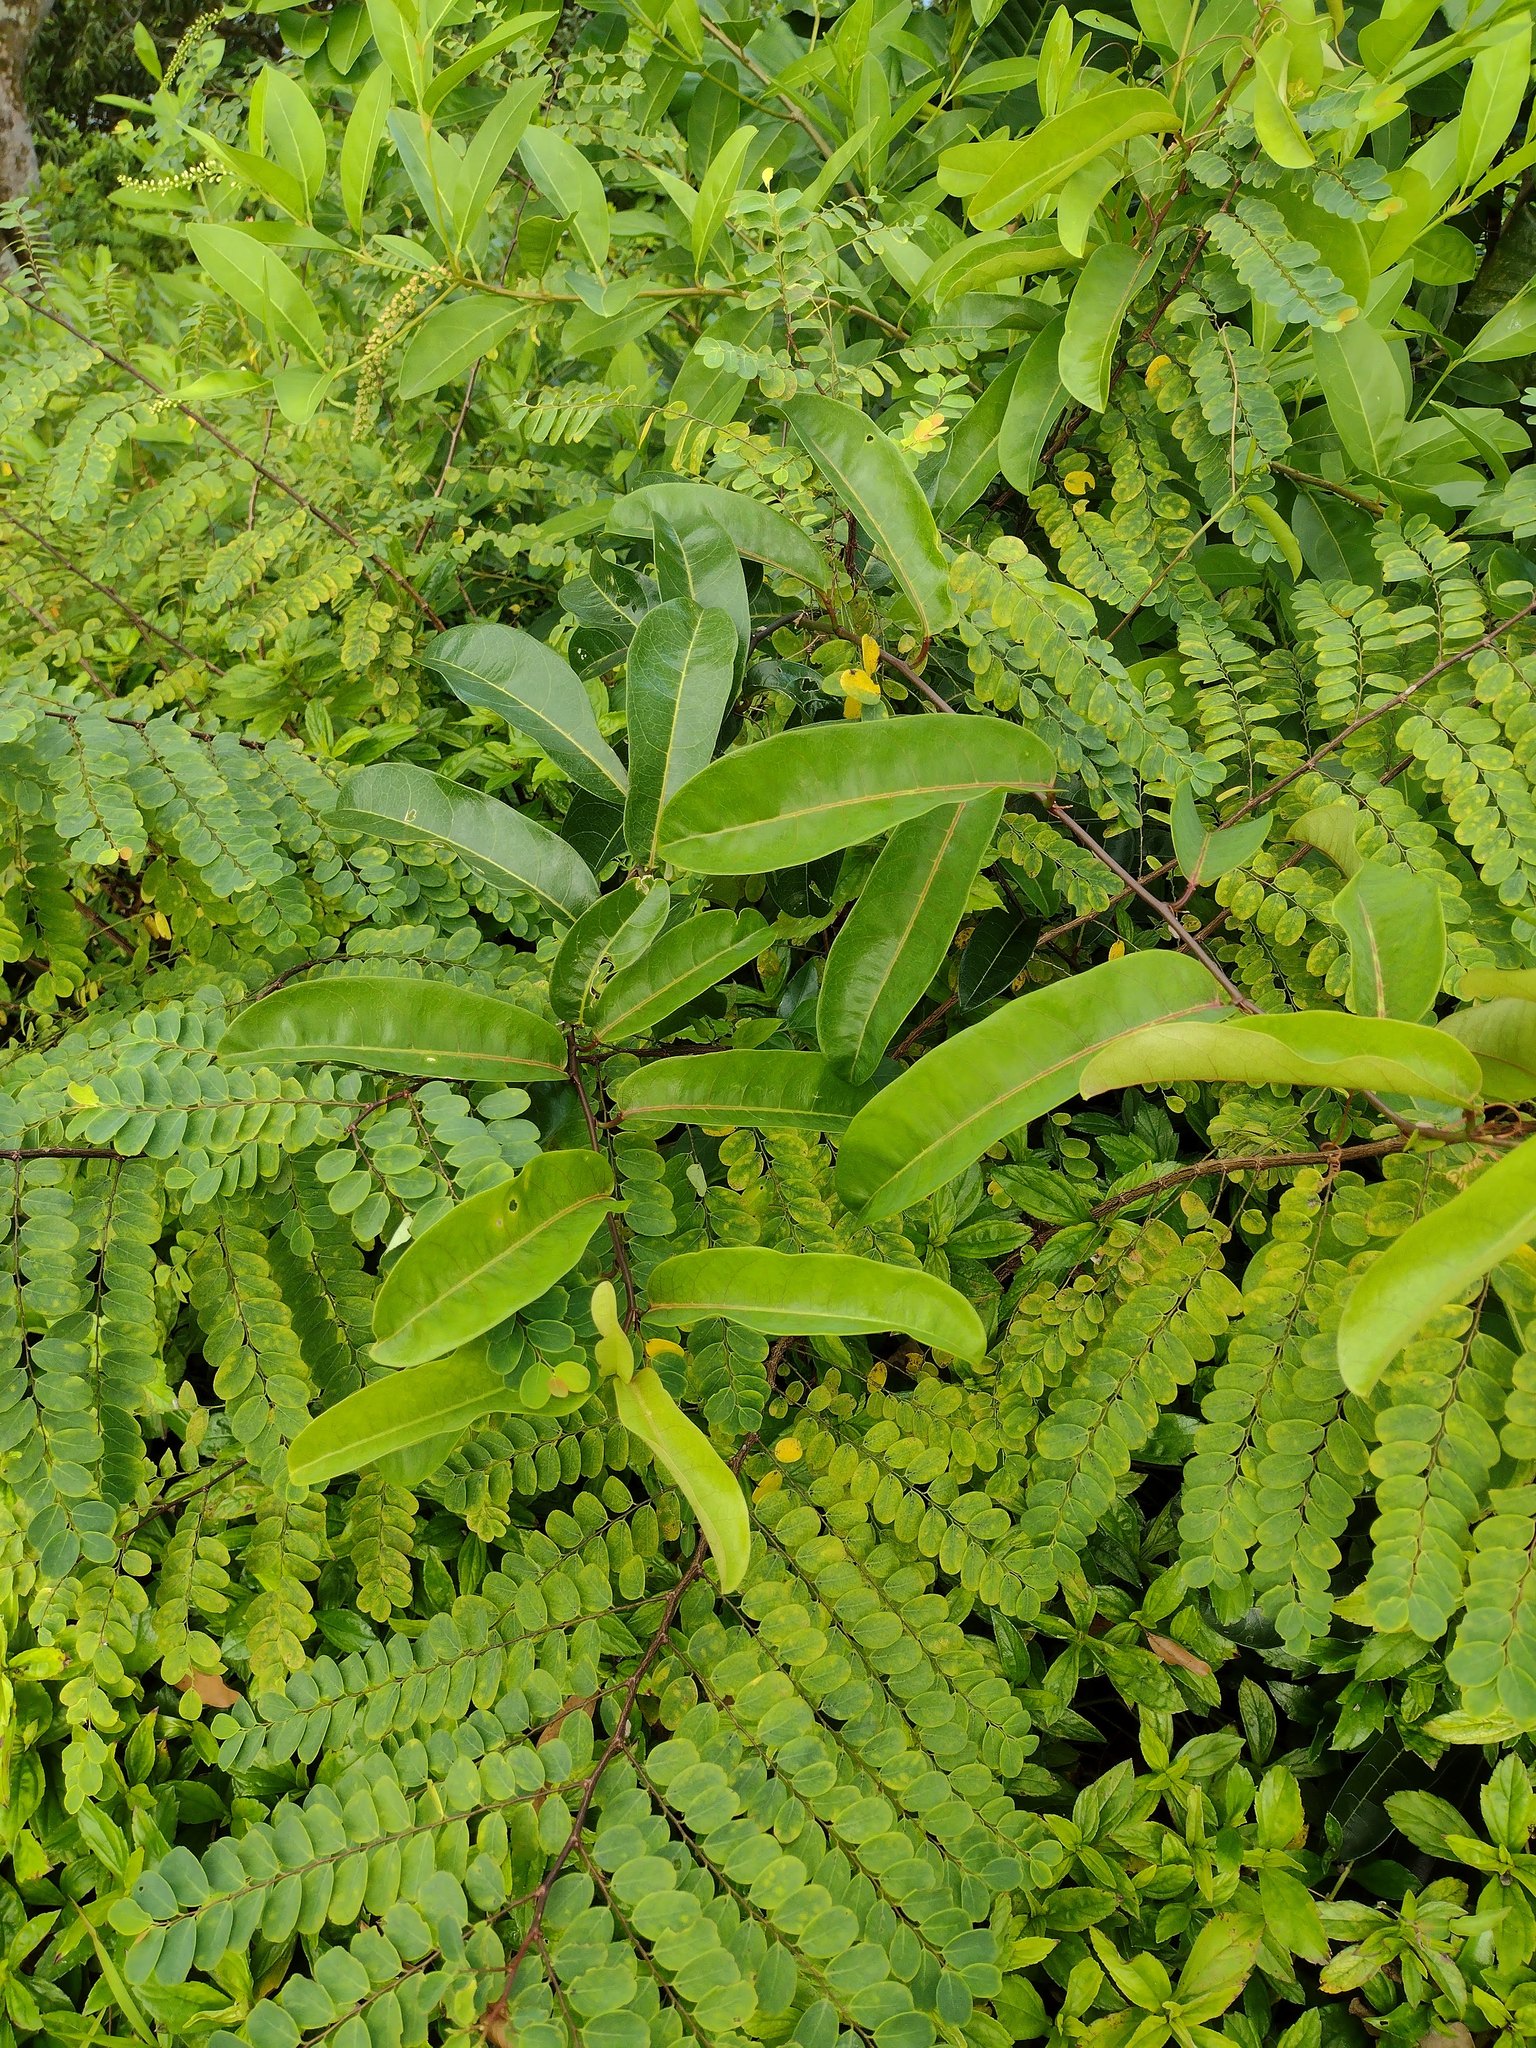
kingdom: Plantae
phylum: Tracheophyta
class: Magnoliopsida
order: Malpighiales
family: Passifloraceae
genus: Passiflora
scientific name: Passiflora laurifolia
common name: Bell apple
